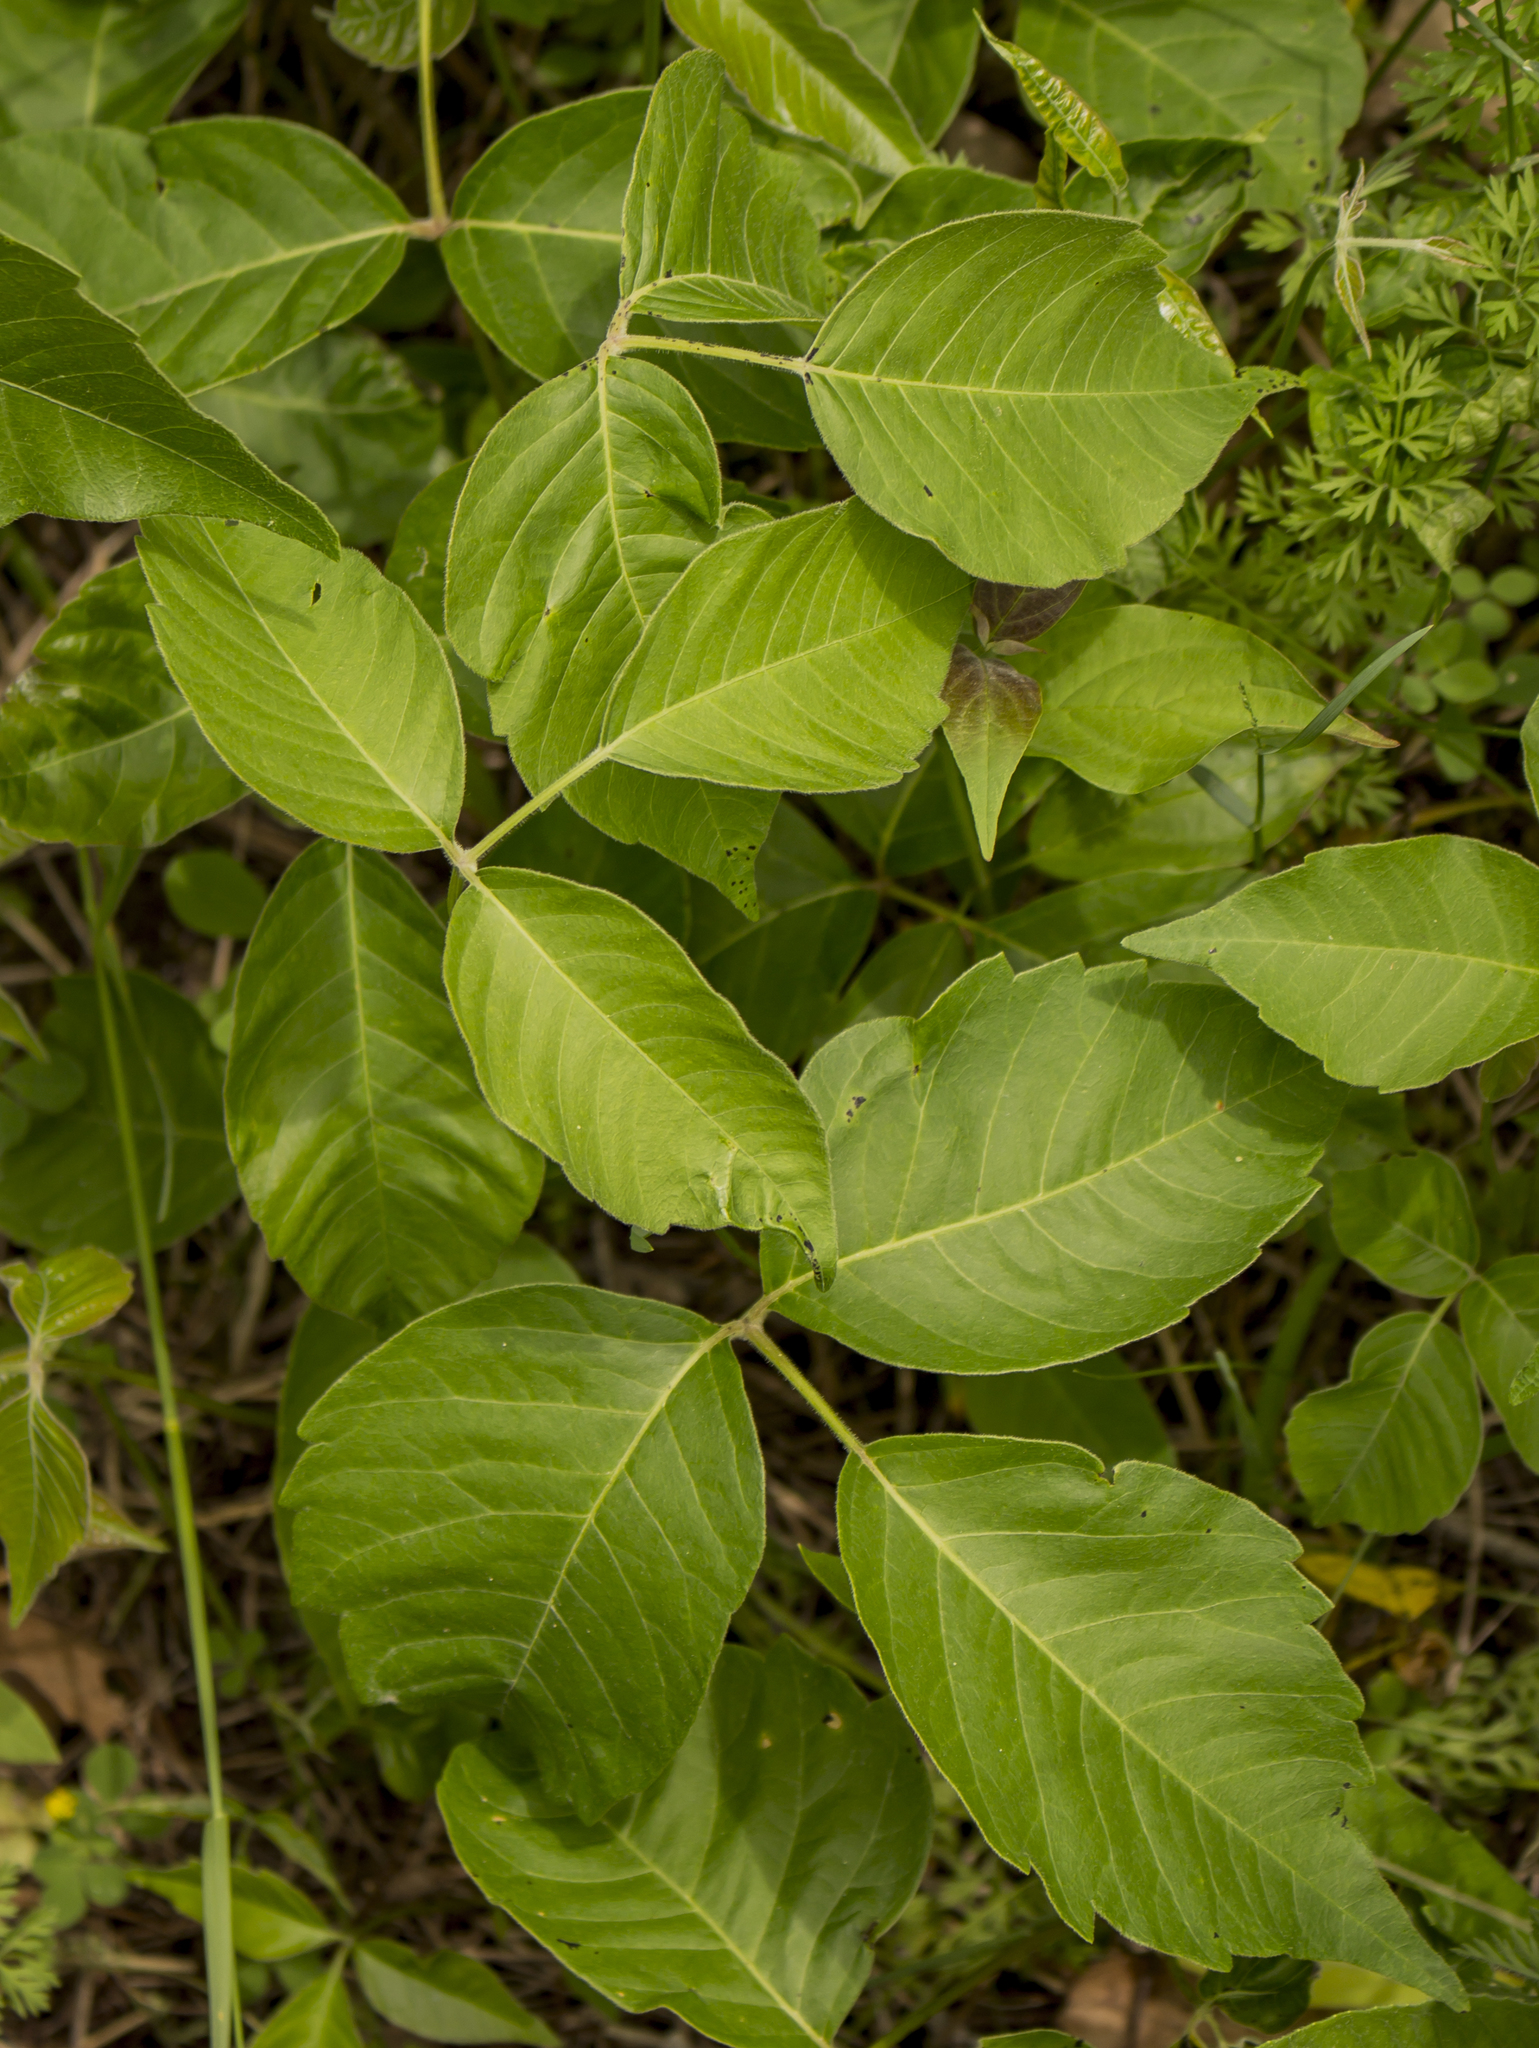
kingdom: Plantae
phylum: Tracheophyta
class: Magnoliopsida
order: Sapindales
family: Anacardiaceae
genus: Toxicodendron
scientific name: Toxicodendron rydbergii
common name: Rydberg's poison-ivy
